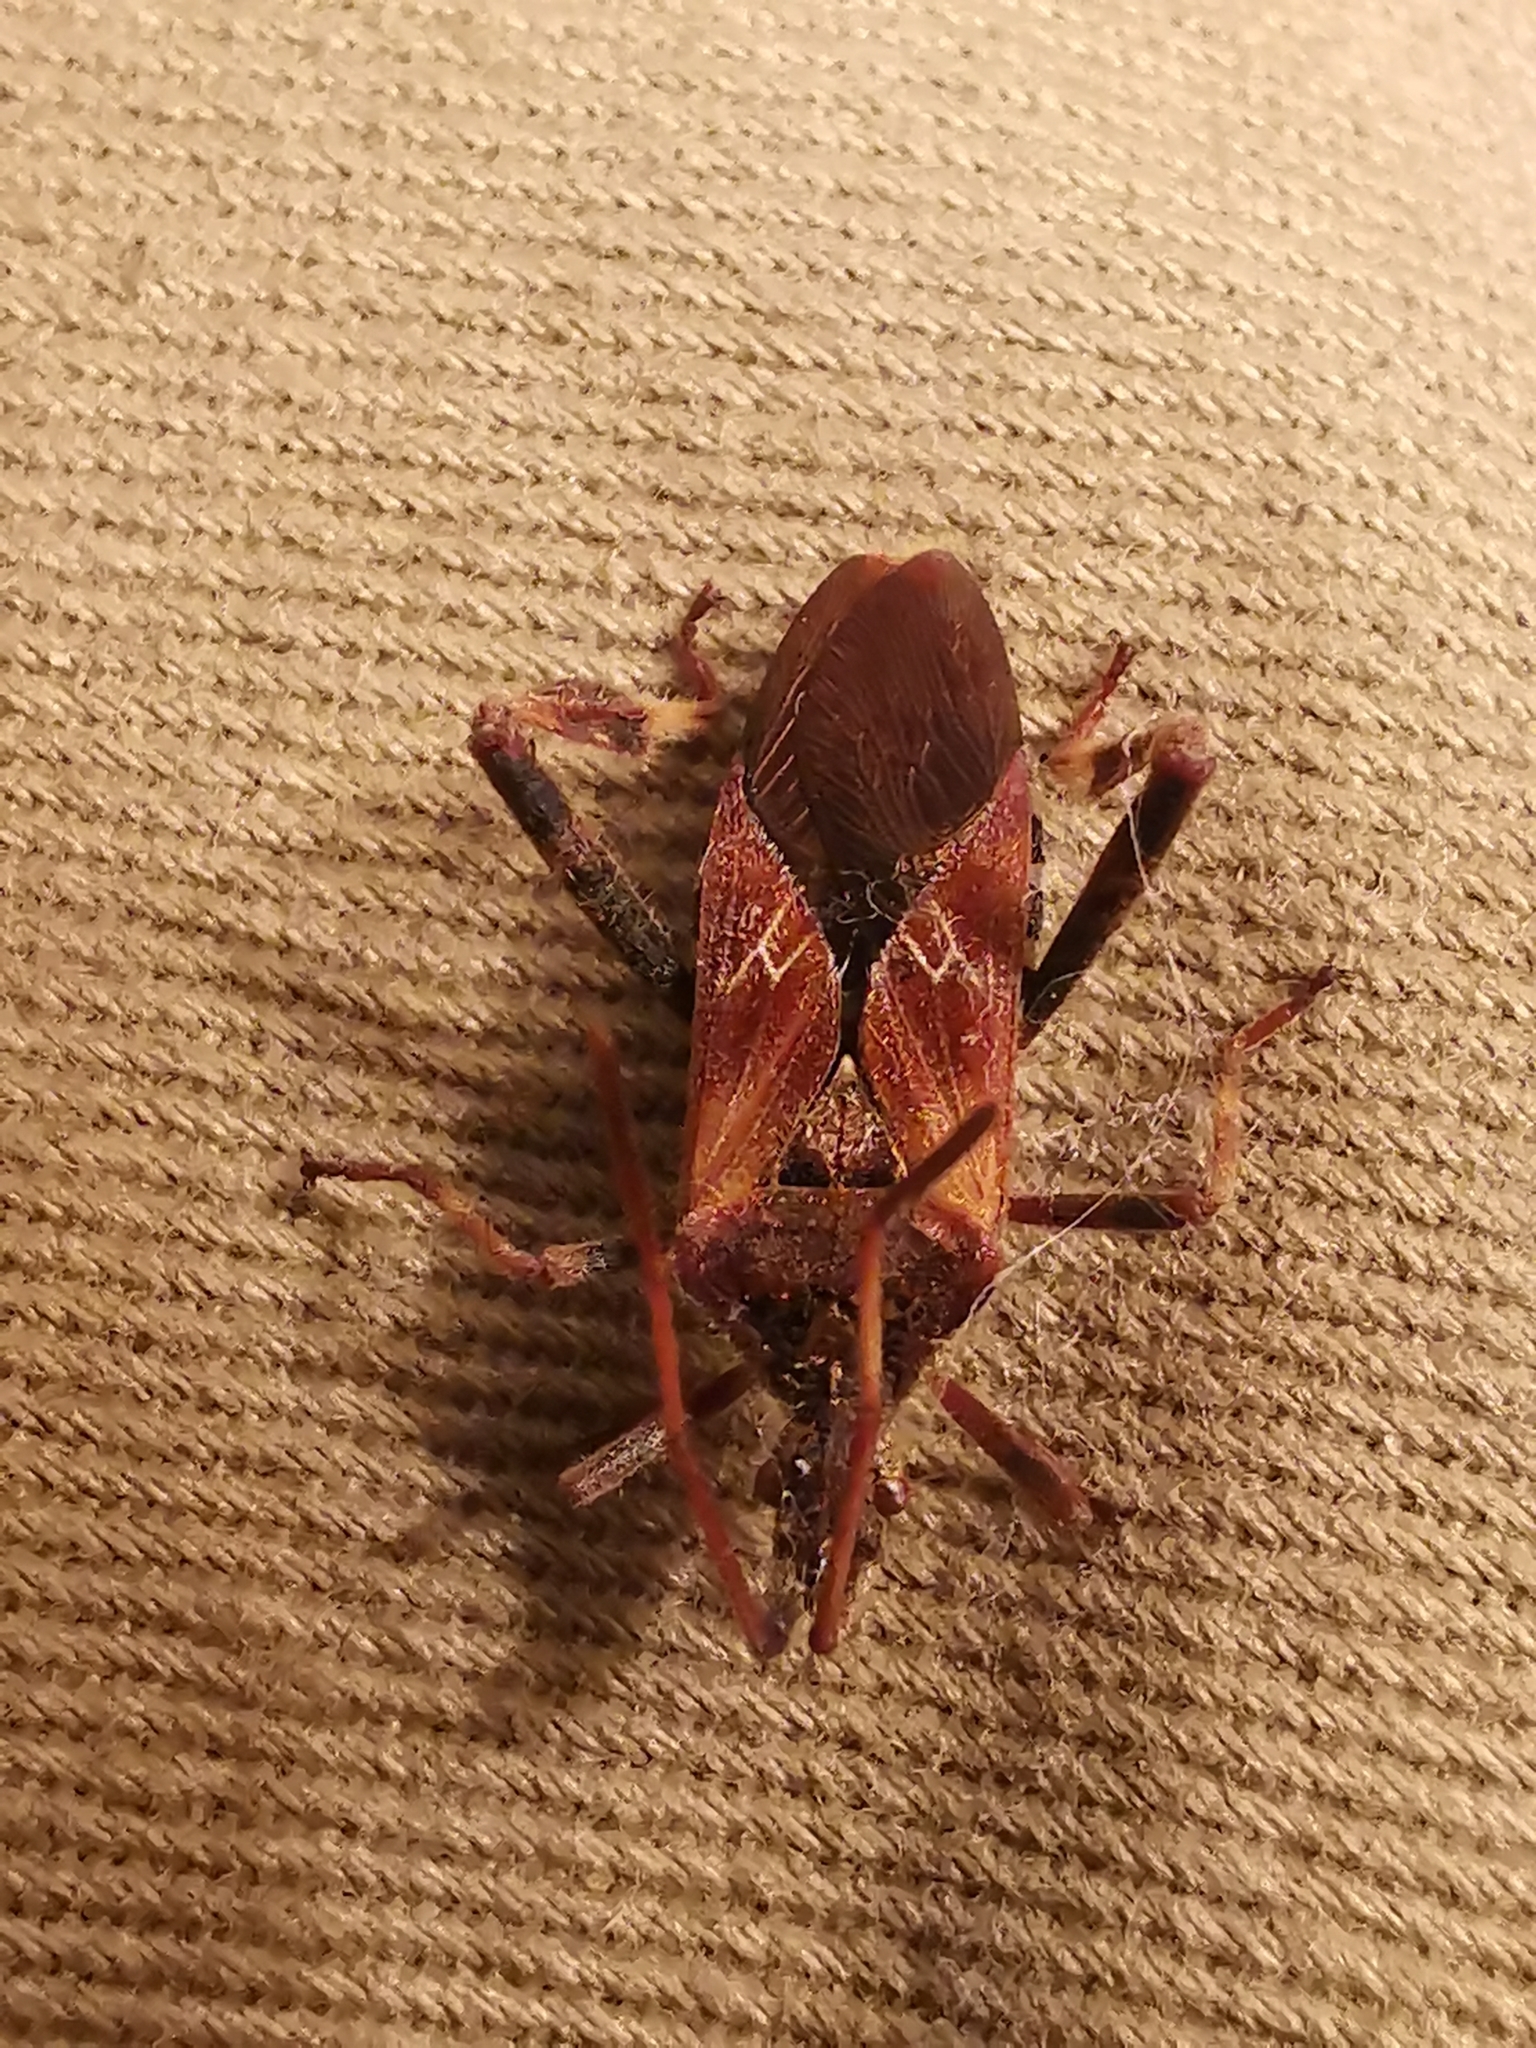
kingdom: Animalia
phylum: Arthropoda
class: Insecta
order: Hemiptera
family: Coreidae
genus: Leptoglossus
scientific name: Leptoglossus occidentalis
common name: Western conifer-seed bug
